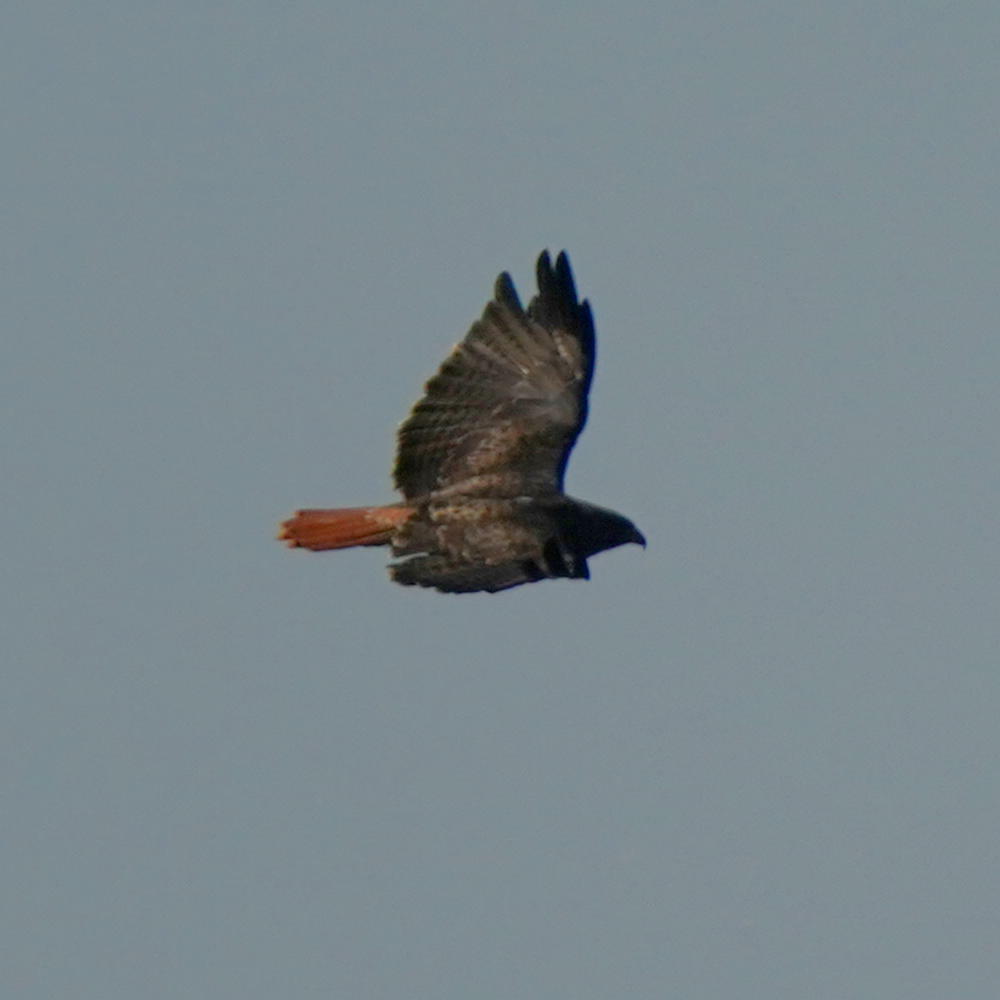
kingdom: Animalia
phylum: Chordata
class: Aves
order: Accipitriformes
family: Accipitridae
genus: Buteo
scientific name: Buteo jamaicensis
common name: Red-tailed hawk
